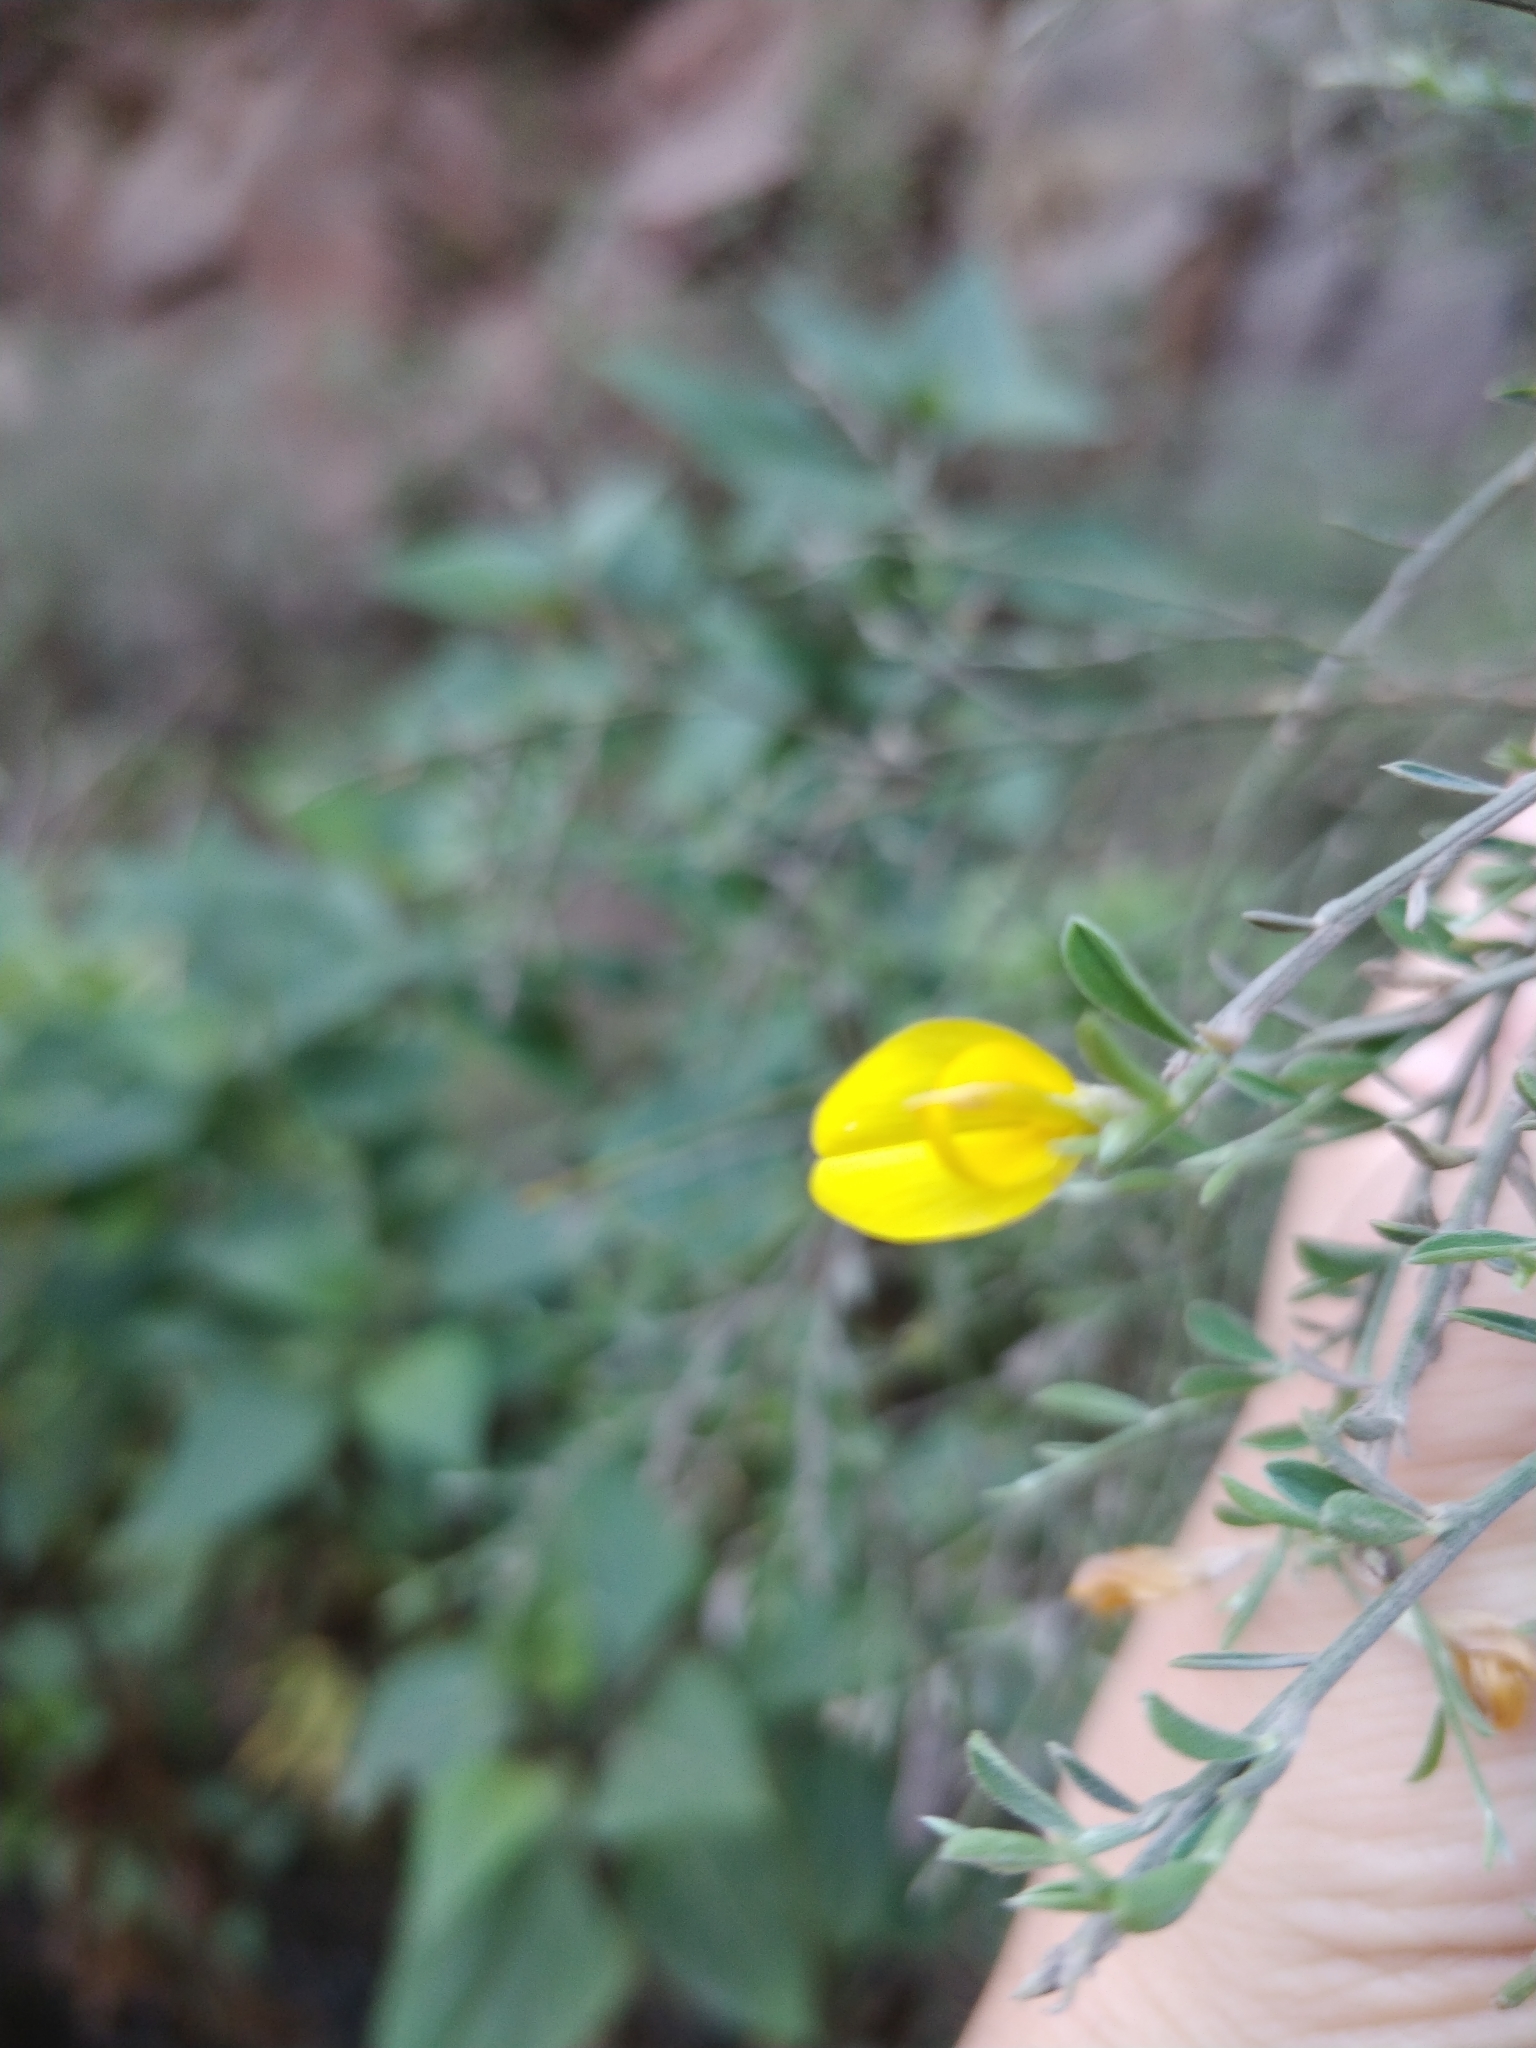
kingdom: Plantae
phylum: Tracheophyta
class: Magnoliopsida
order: Fabales
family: Fabaceae
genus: Genista
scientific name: Genista tenera
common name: Madeira broom
